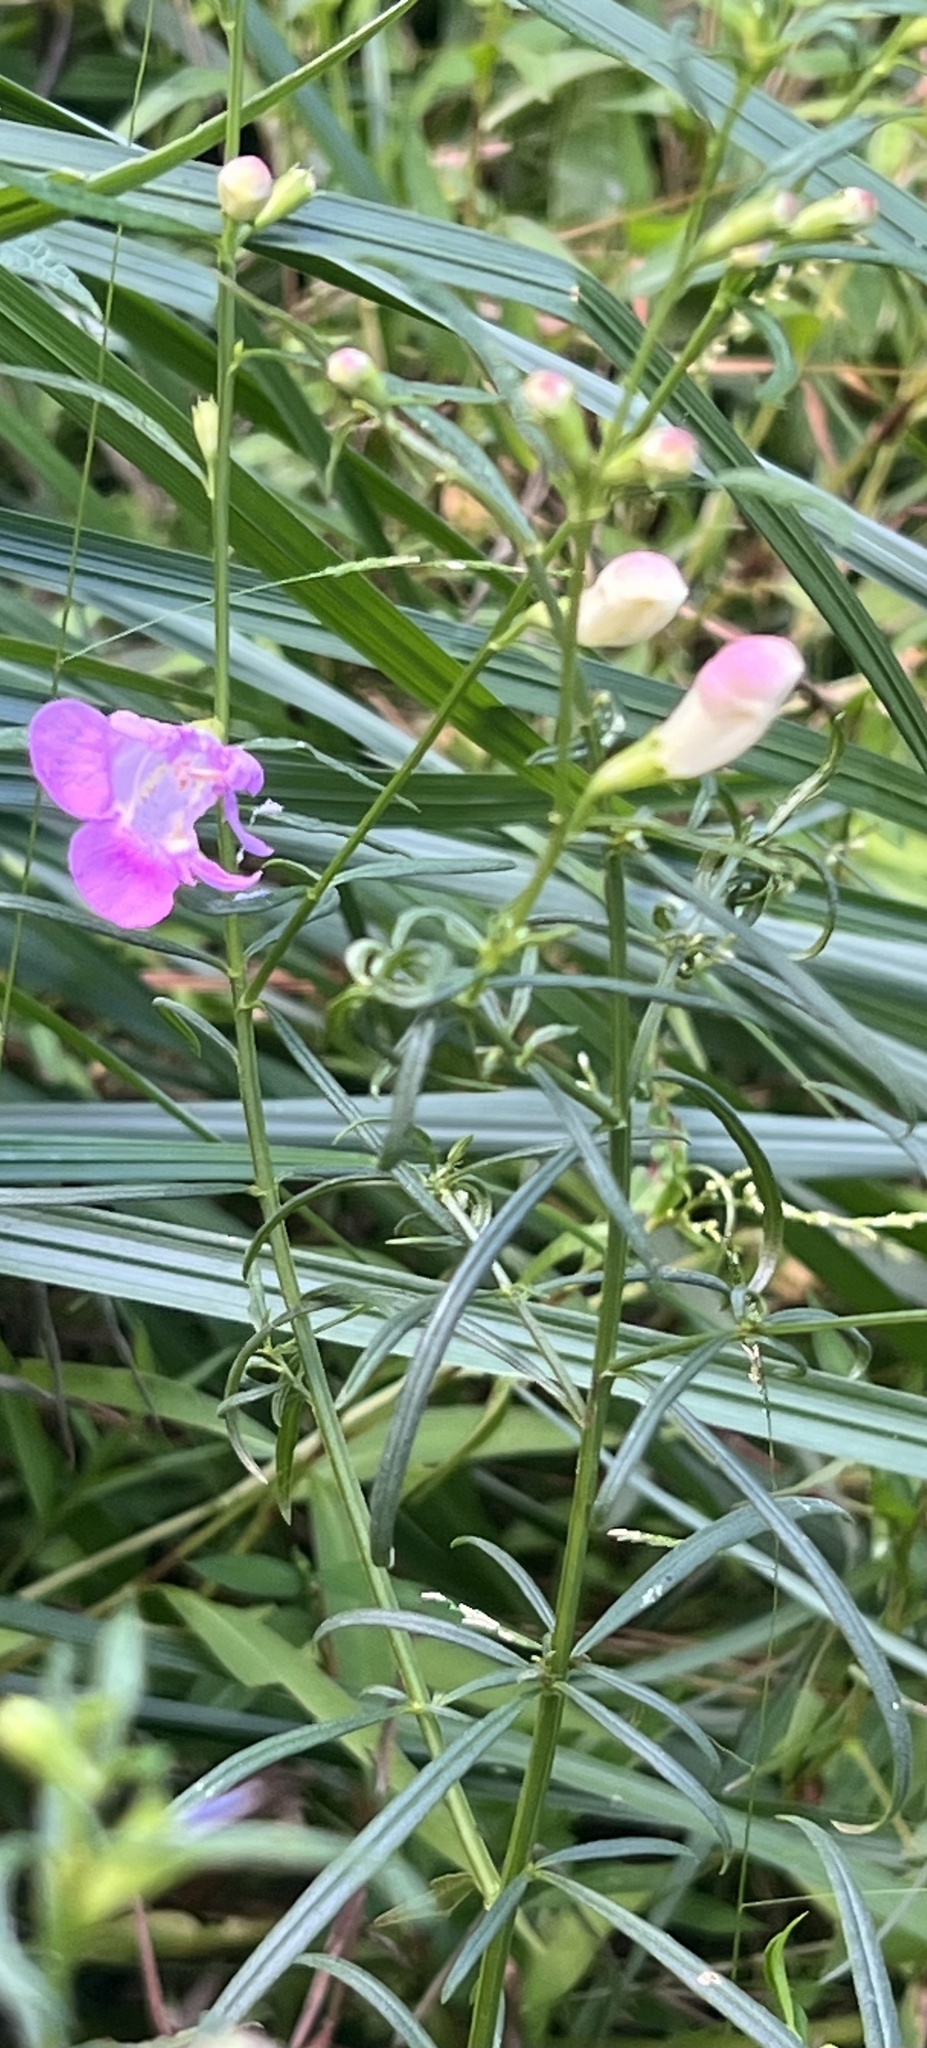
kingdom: Plantae
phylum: Tracheophyta
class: Magnoliopsida
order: Lamiales
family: Orobanchaceae
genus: Agalinis
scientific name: Agalinis purpurea
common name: Purple false foxglove
